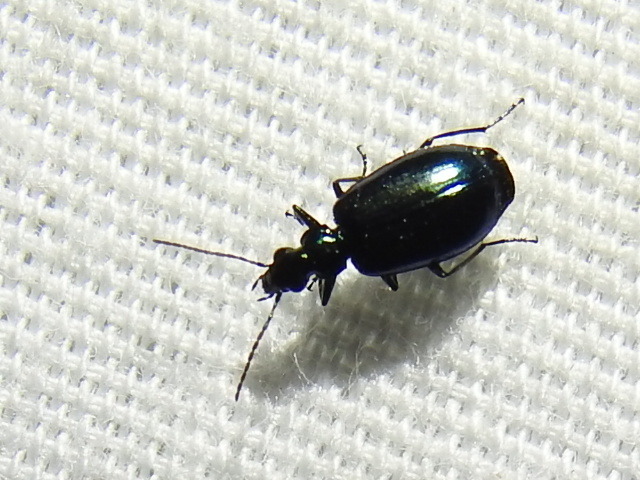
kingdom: Animalia
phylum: Arthropoda
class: Insecta
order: Coleoptera
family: Carabidae
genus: Lebia
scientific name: Lebia viridis
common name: Flower lebia beetle
